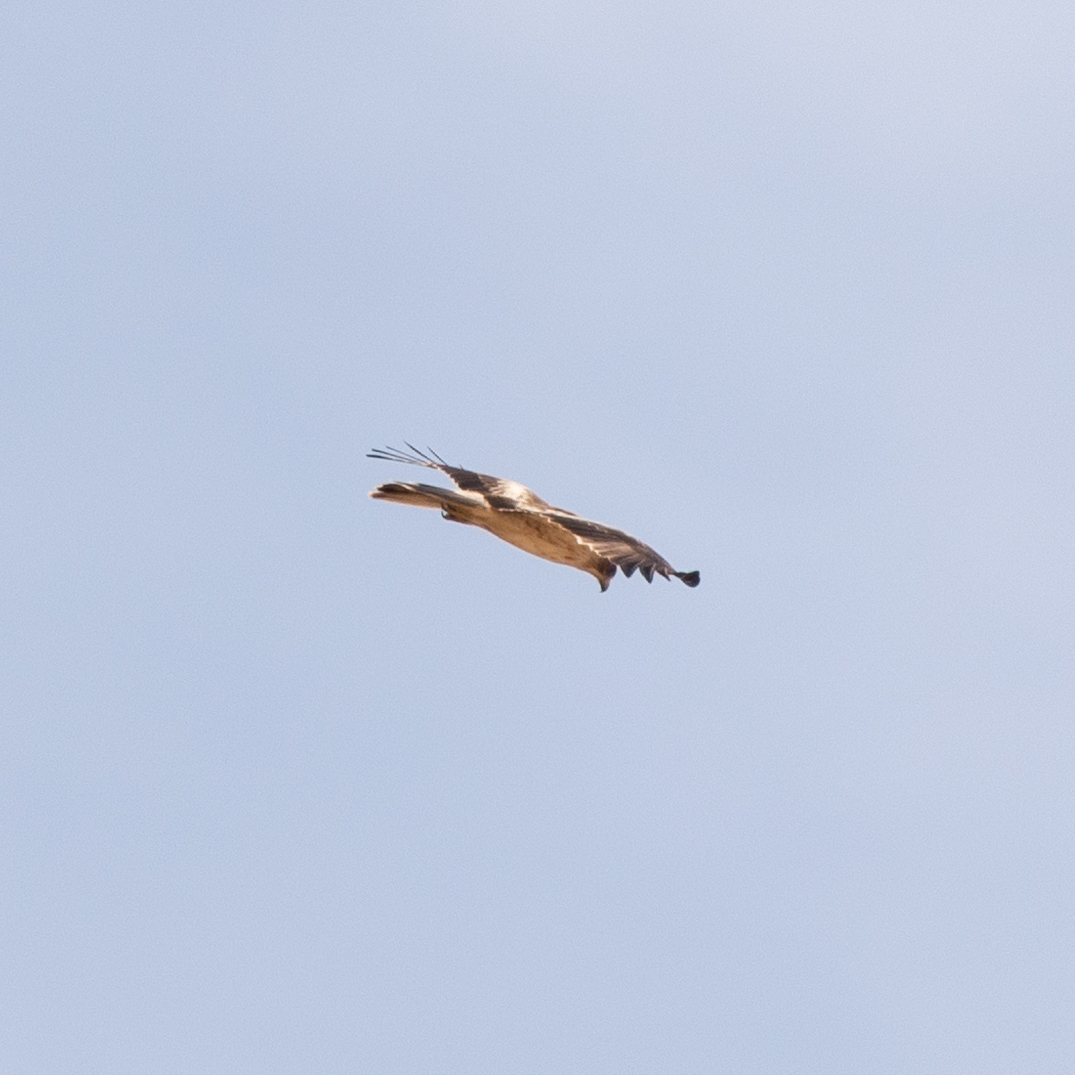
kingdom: Animalia
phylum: Chordata
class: Aves
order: Accipitriformes
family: Accipitridae
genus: Hieraaetus
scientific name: Hieraaetus pennatus
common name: Booted eagle
